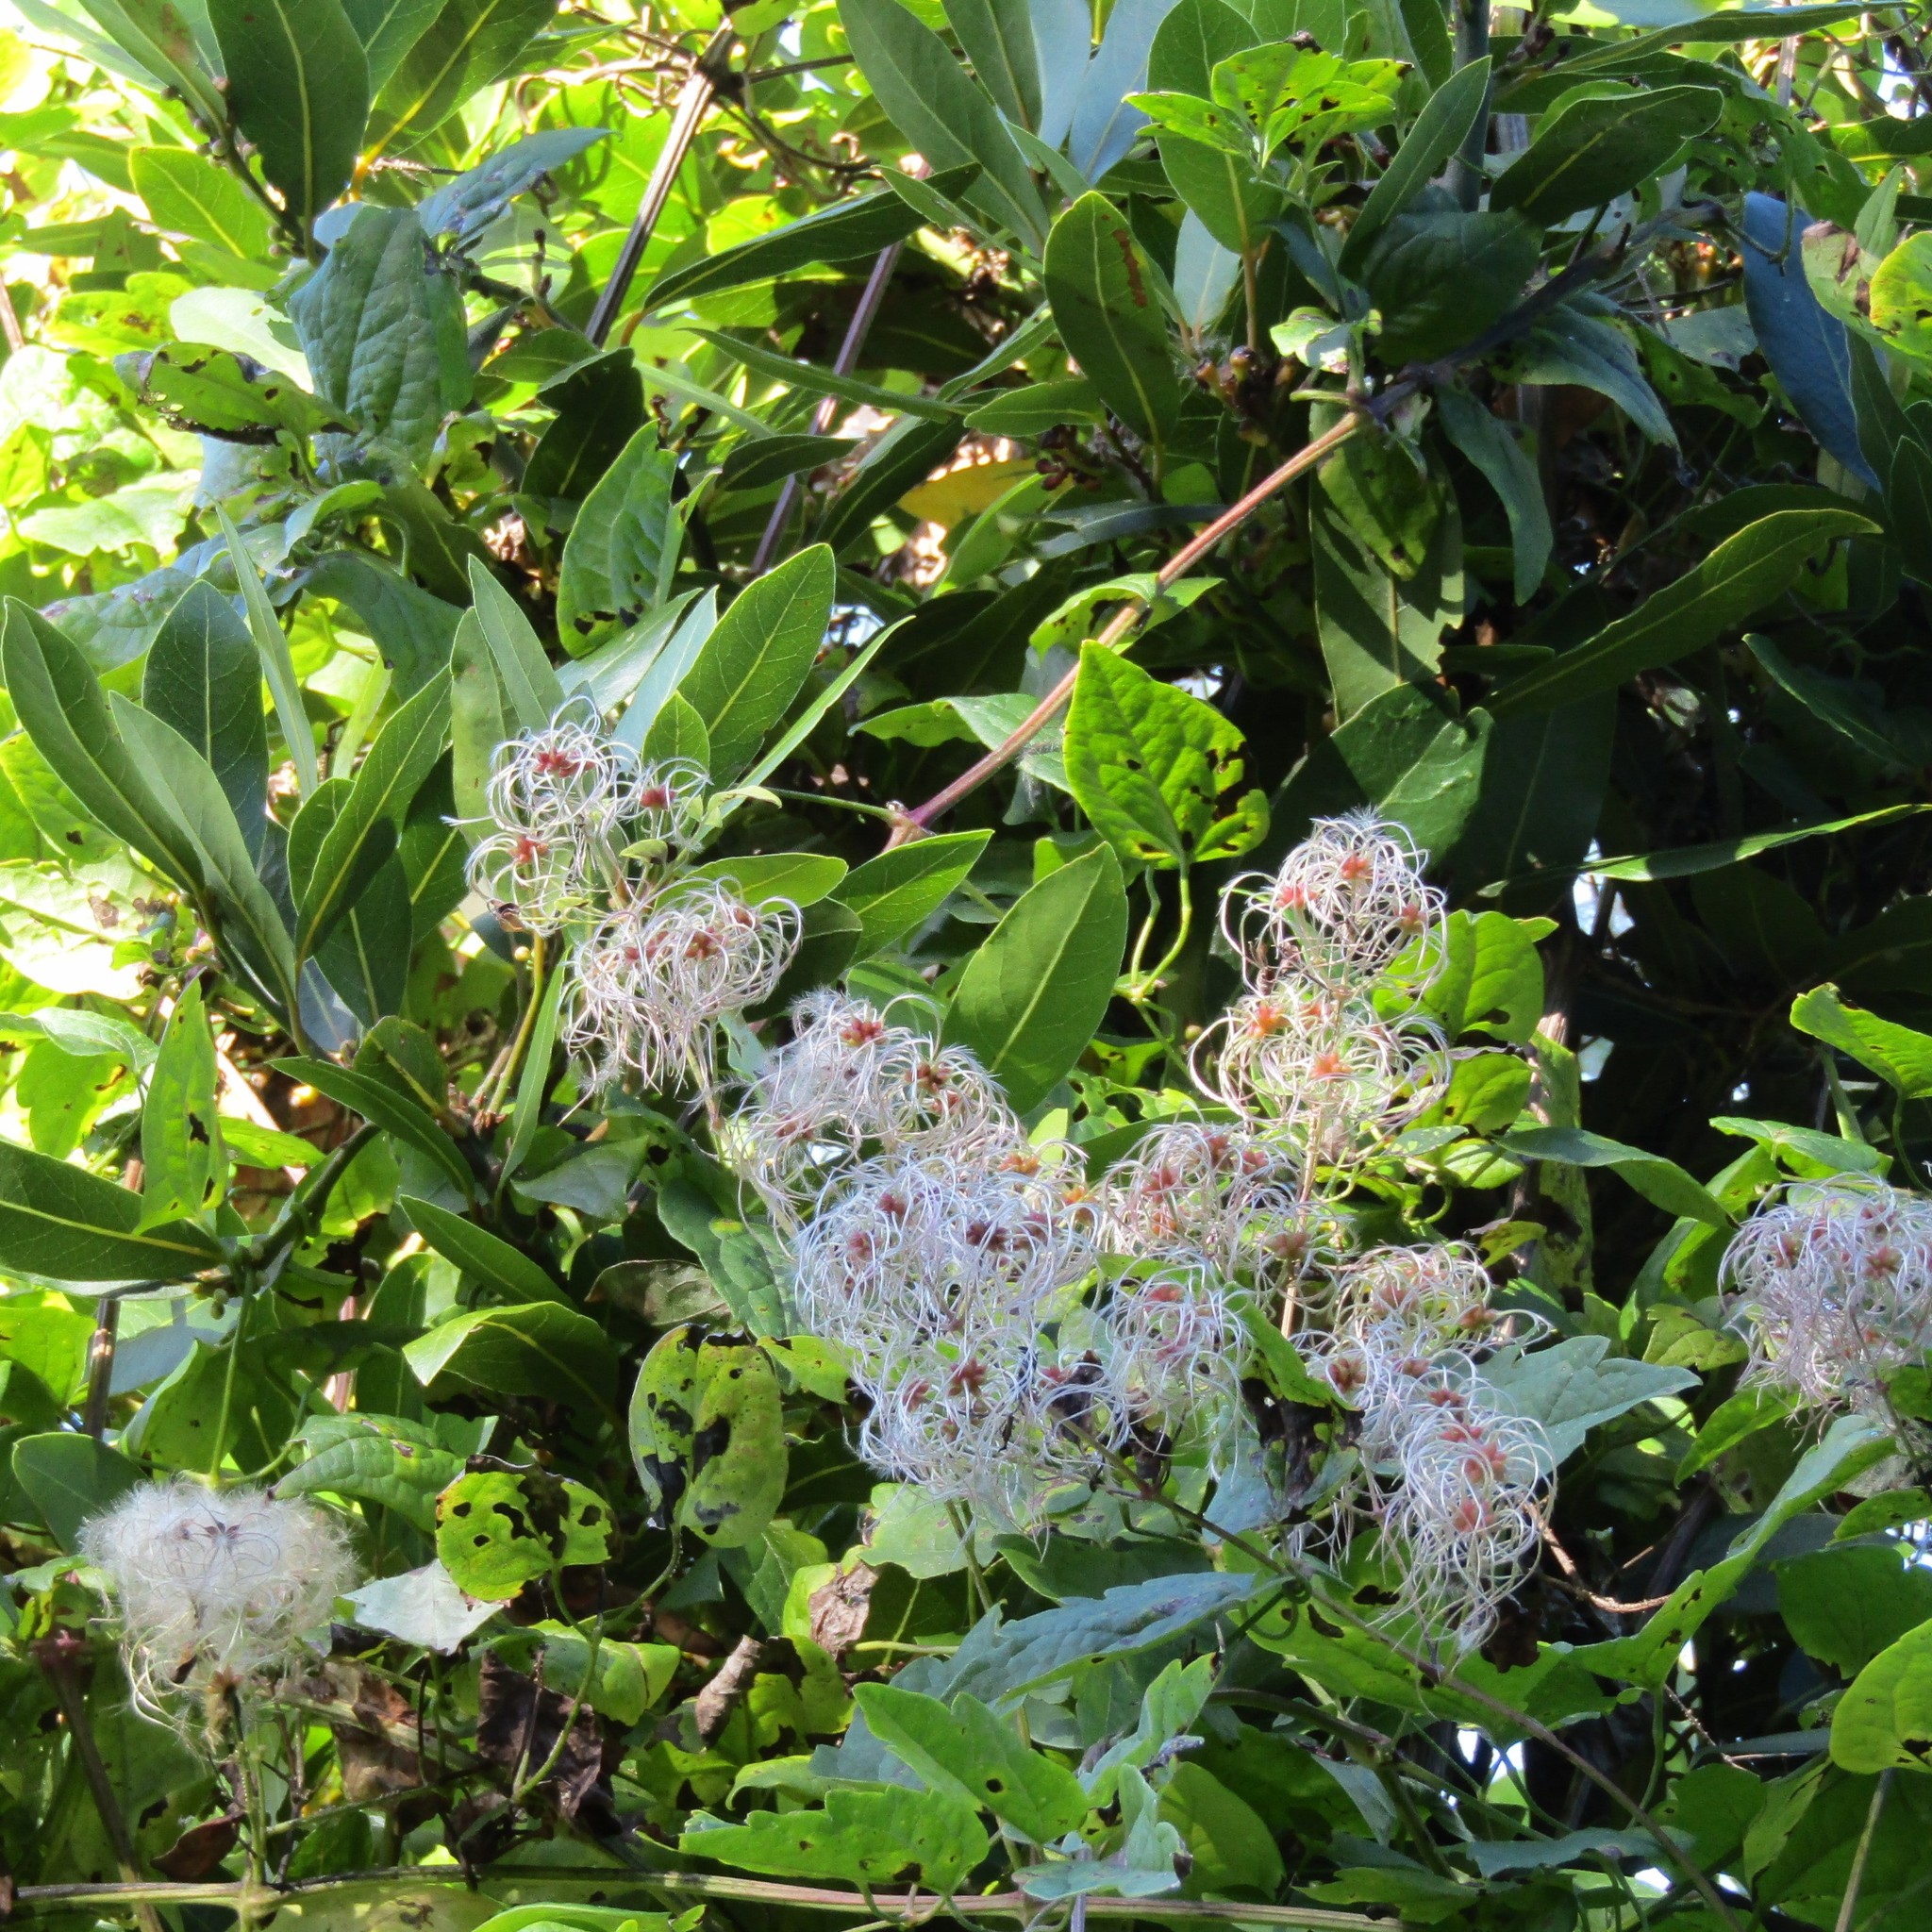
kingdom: Plantae
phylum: Tracheophyta
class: Magnoliopsida
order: Ranunculales
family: Ranunculaceae
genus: Clematis
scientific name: Clematis vitalba
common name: Evergreen clematis
